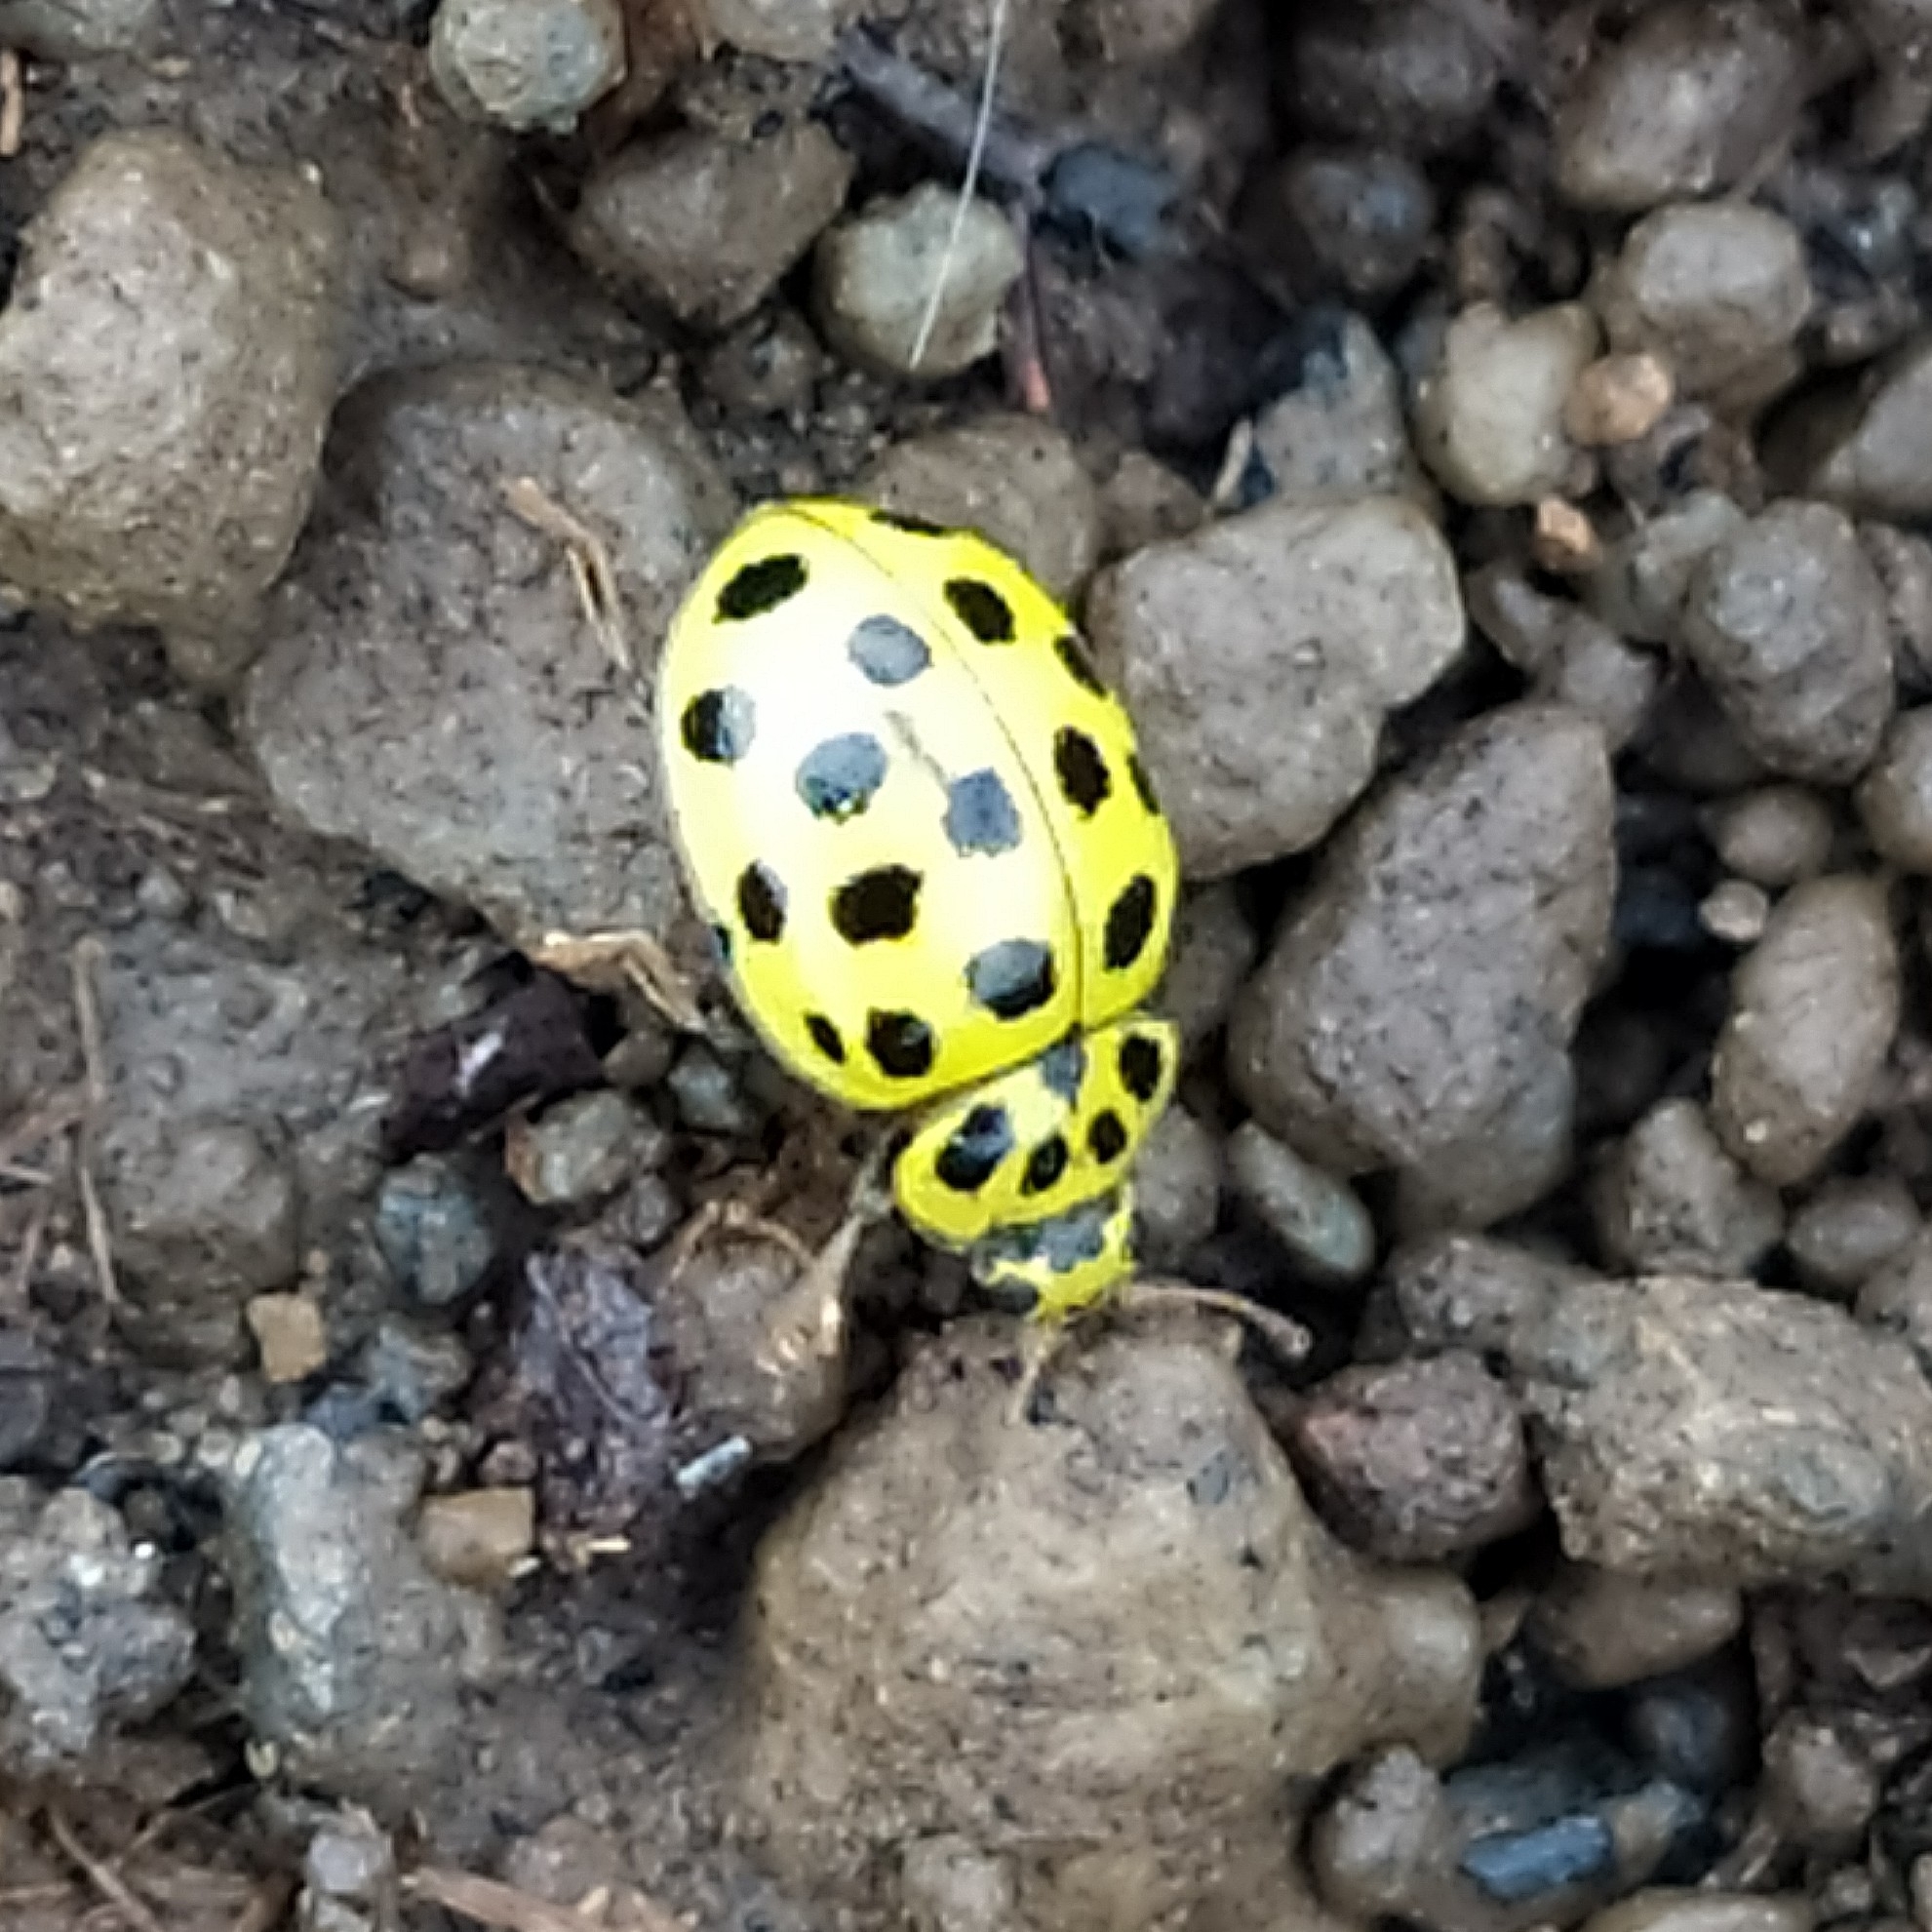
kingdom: Animalia
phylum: Arthropoda
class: Insecta
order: Coleoptera
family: Coccinellidae
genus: Psyllobora
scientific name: Psyllobora vigintiduopunctata
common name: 22-spot ladybird
